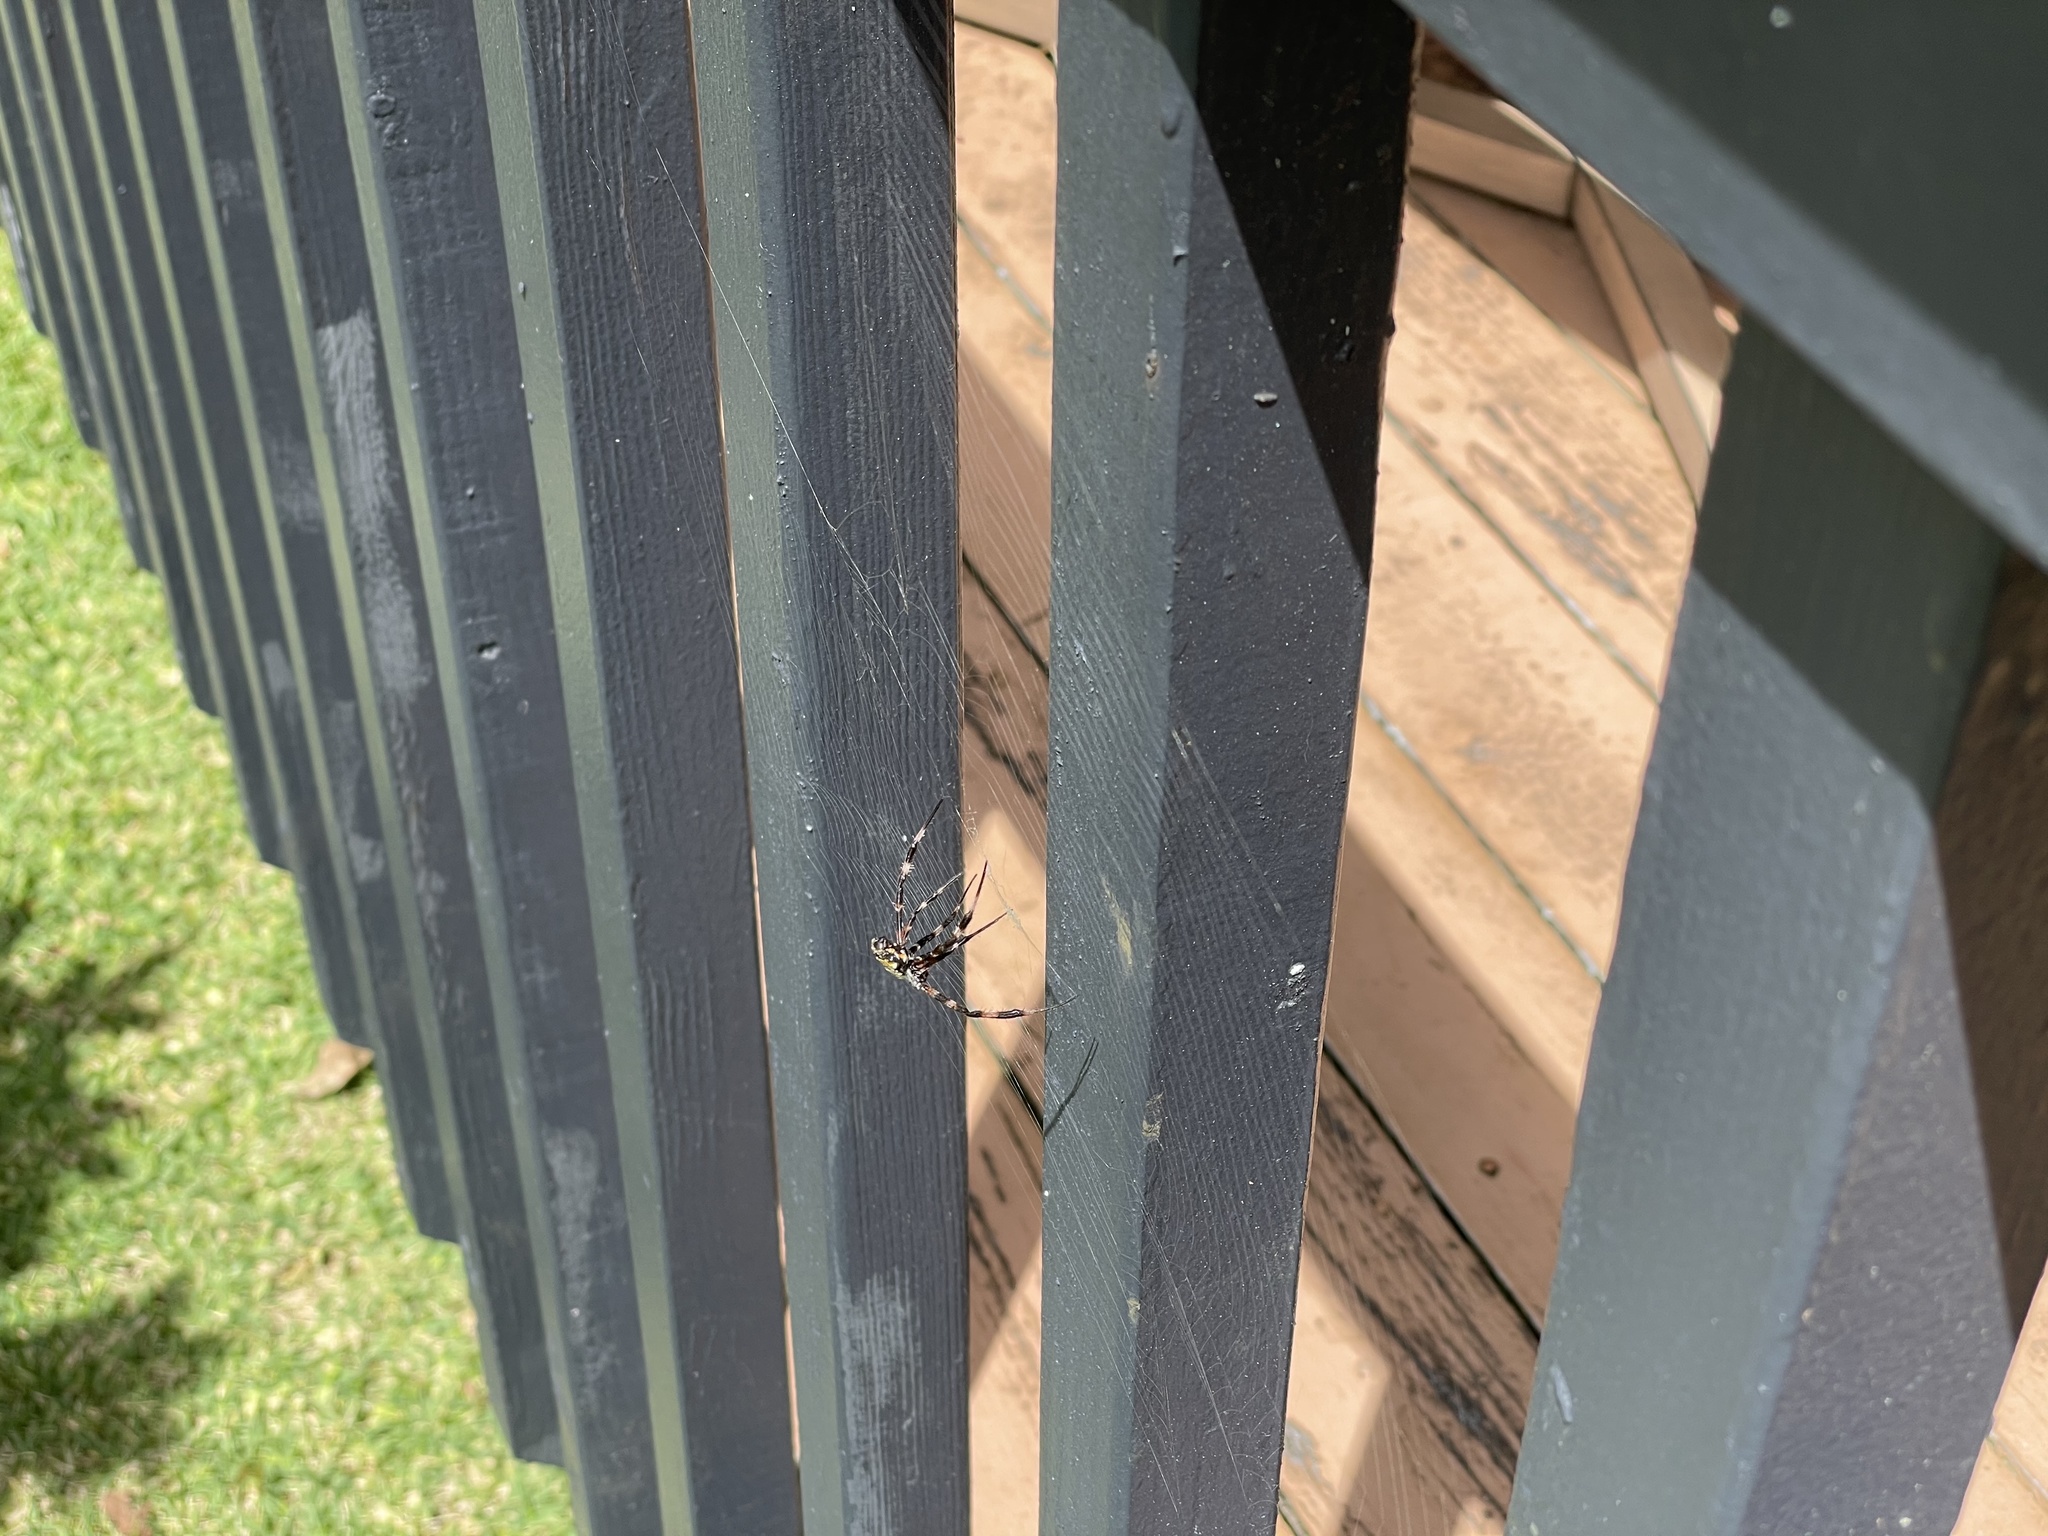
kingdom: Animalia
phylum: Arthropoda
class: Arachnida
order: Araneae
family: Araneidae
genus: Argiope
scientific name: Argiope appensa
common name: Garden spider
